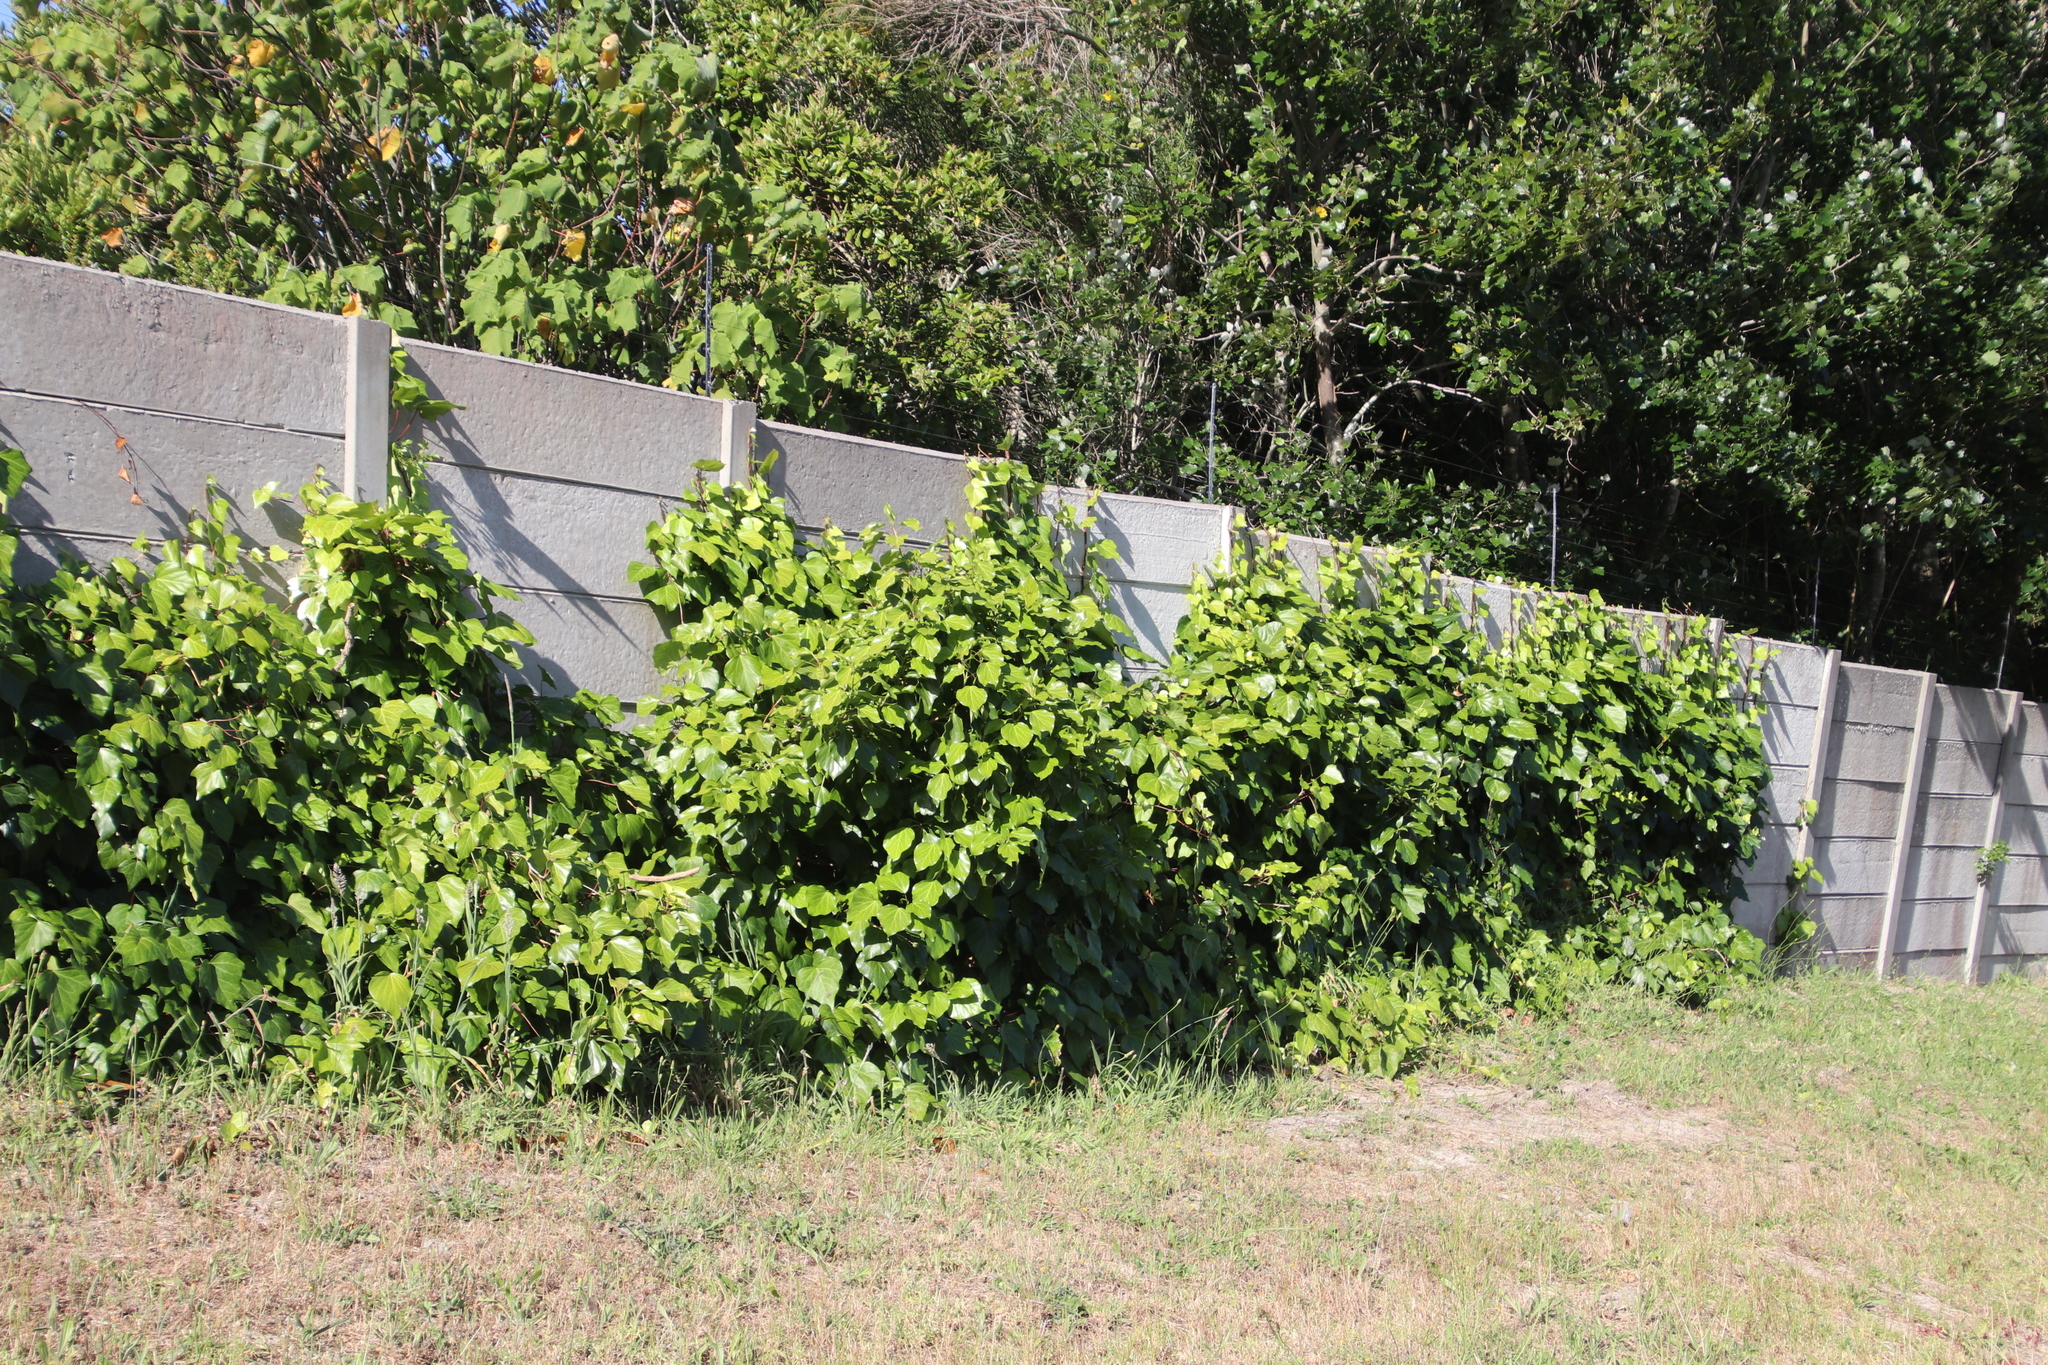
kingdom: Plantae
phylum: Tracheophyta
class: Magnoliopsida
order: Apiales
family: Araliaceae
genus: Hedera
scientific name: Hedera canariensis
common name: Madeira ivy
